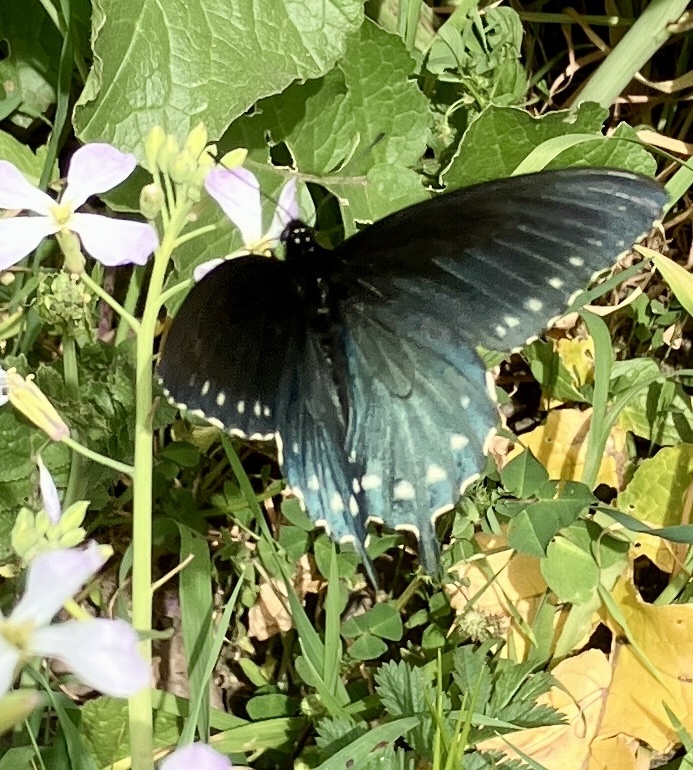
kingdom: Animalia
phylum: Arthropoda
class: Insecta
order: Lepidoptera
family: Papilionidae
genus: Battus
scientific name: Battus philenor
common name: Pipevine swallowtail
